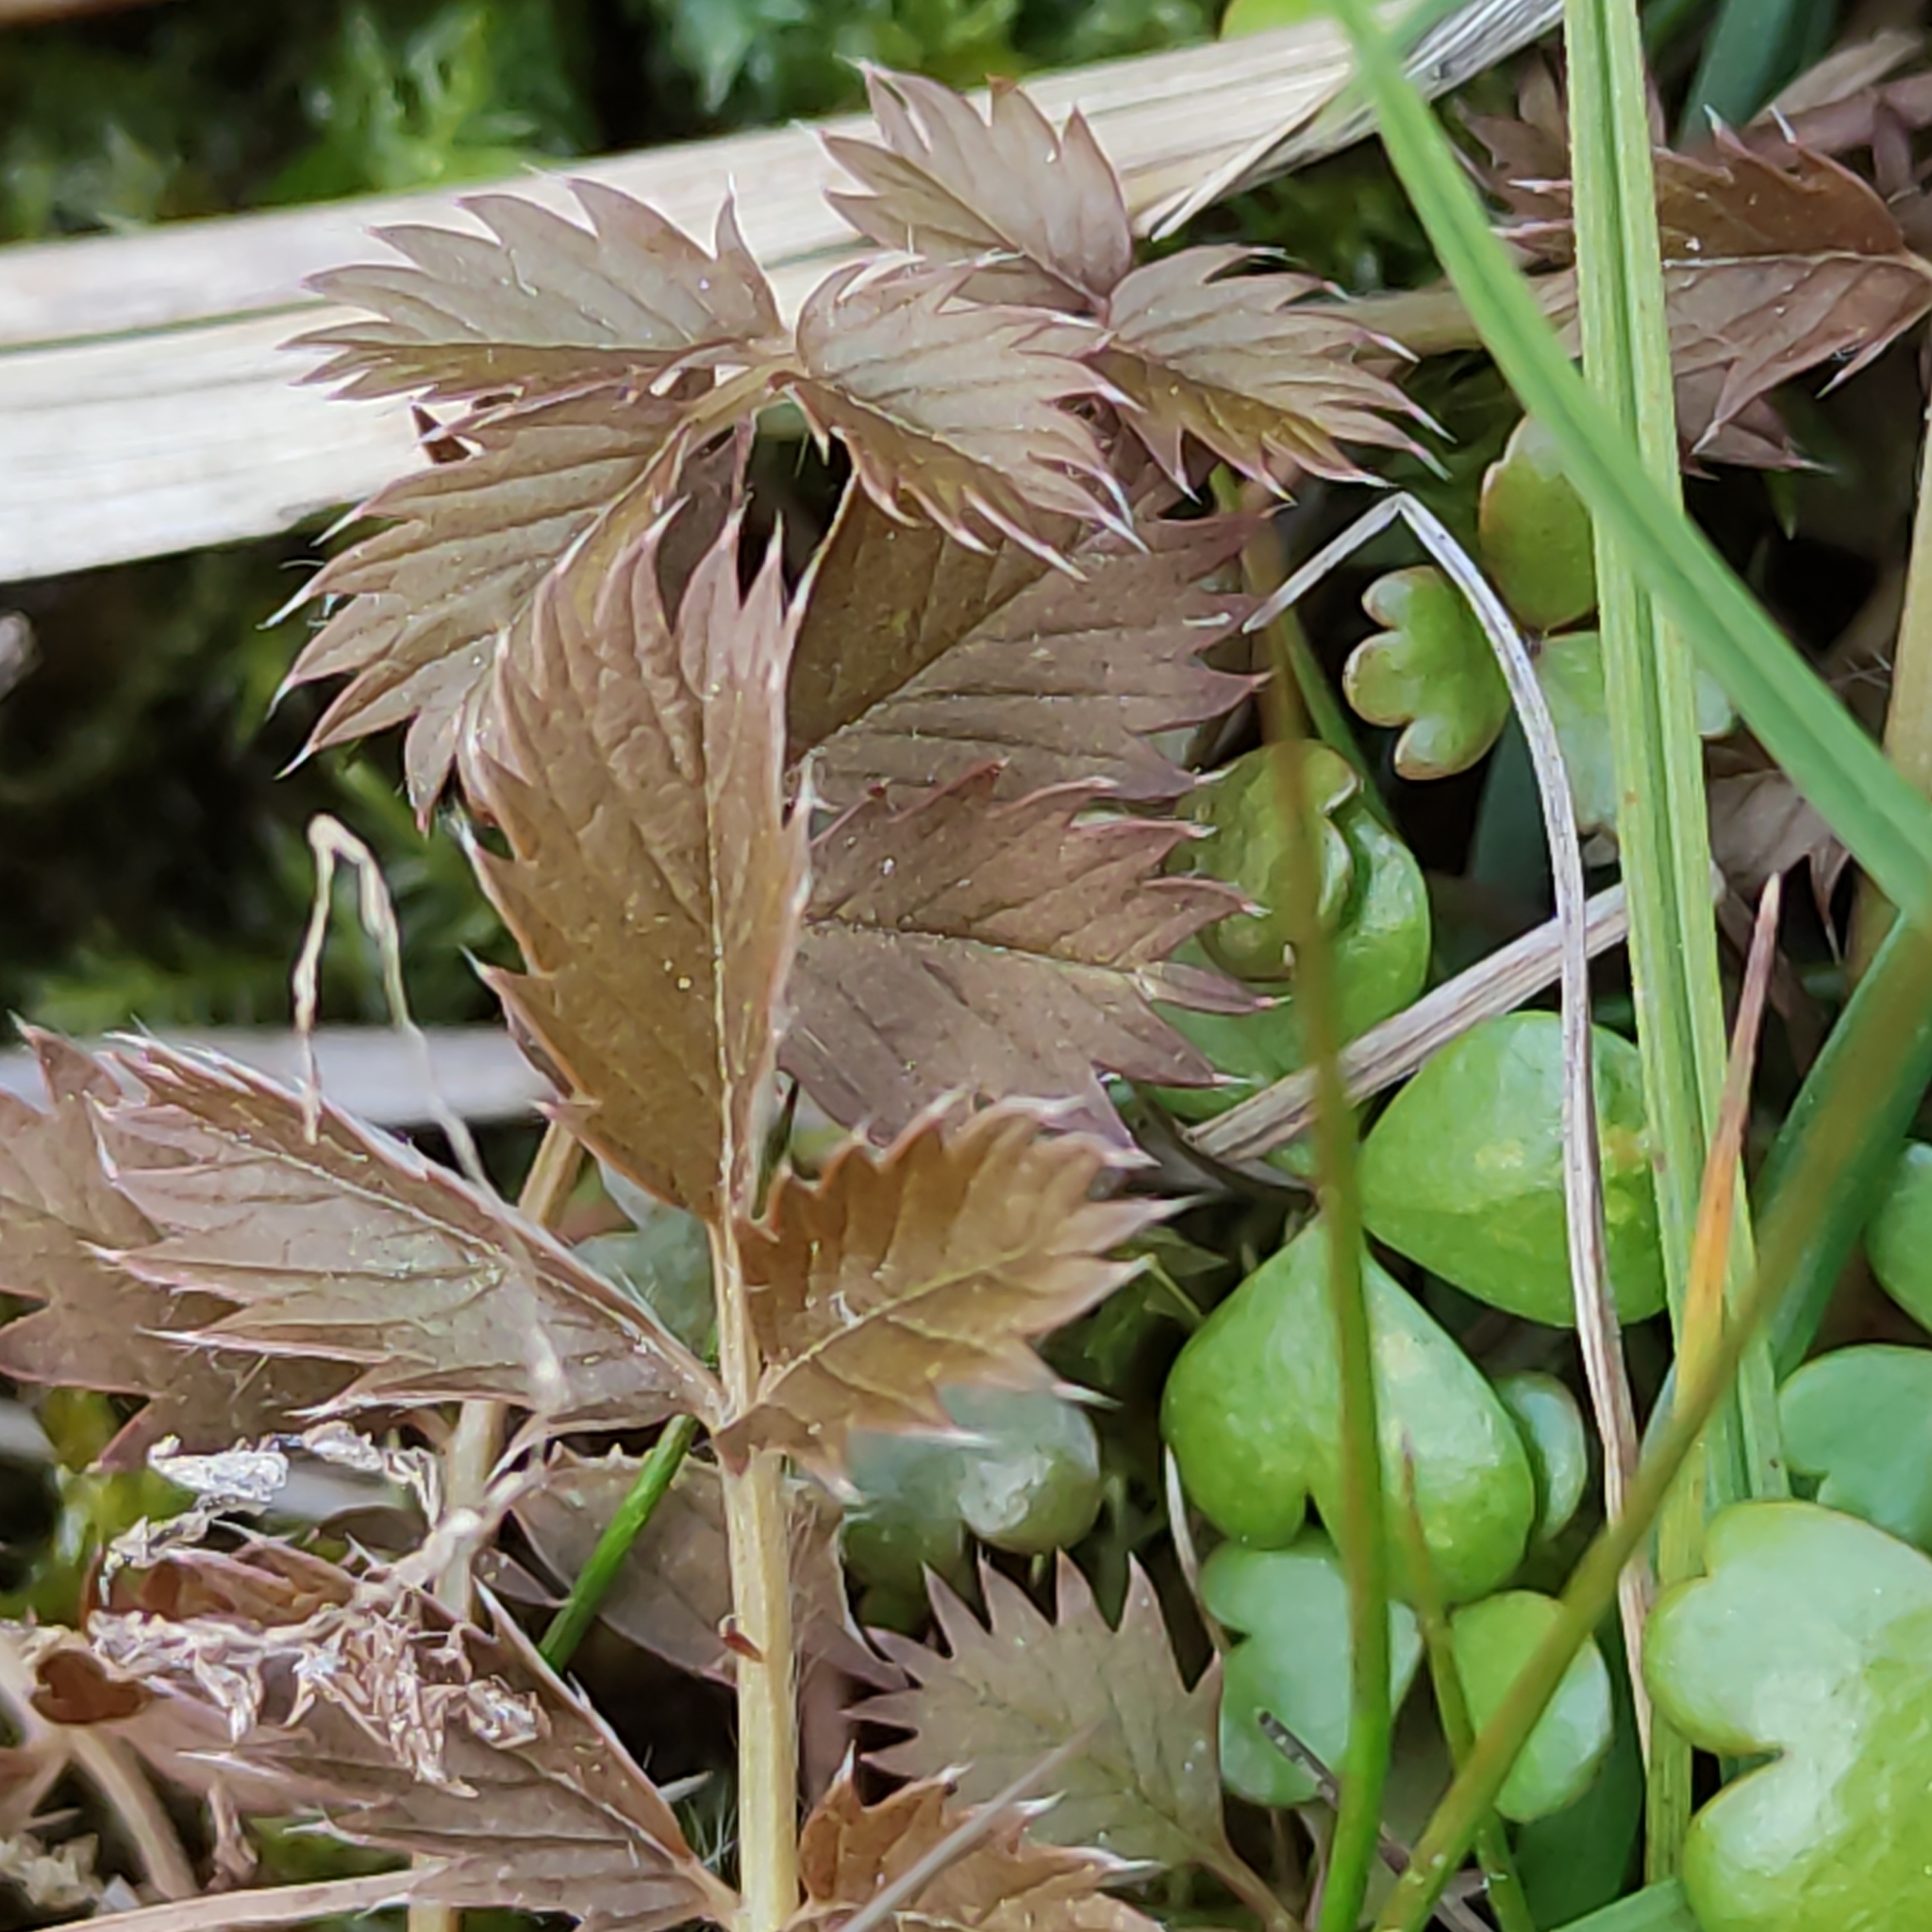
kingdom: Plantae
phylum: Tracheophyta
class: Magnoliopsida
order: Rosales
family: Rosaceae
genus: Argentina
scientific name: Argentina anserina
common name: Common silverweed
